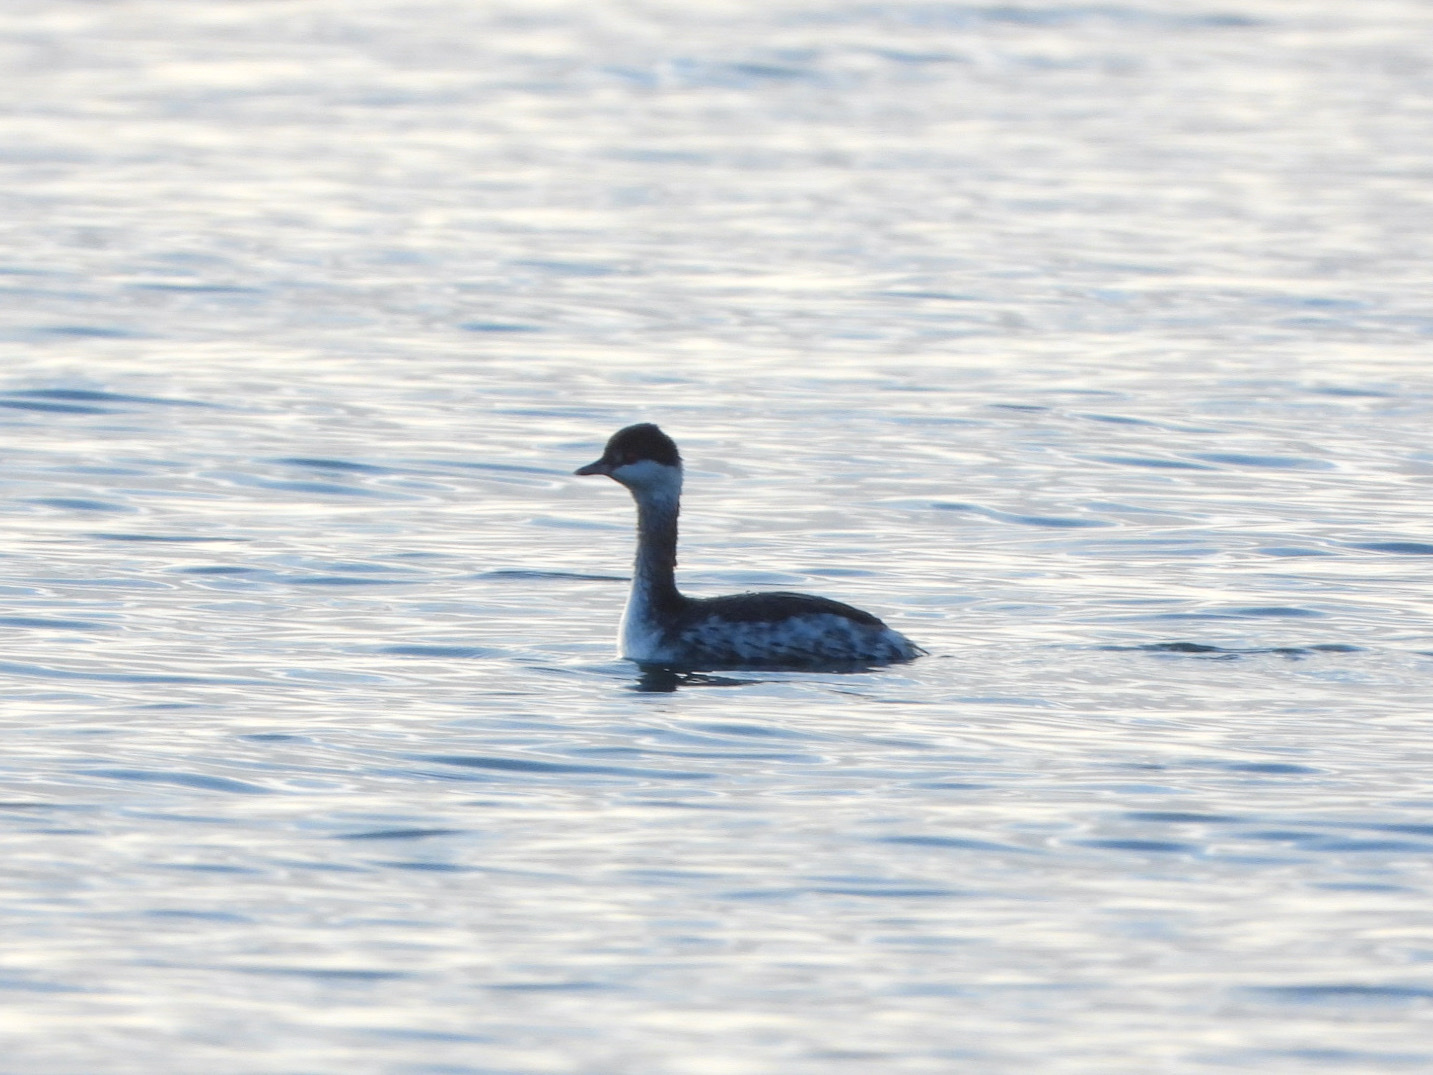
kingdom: Animalia
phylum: Chordata
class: Aves
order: Podicipediformes
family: Podicipedidae
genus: Podiceps
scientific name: Podiceps auritus
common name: Horned grebe
